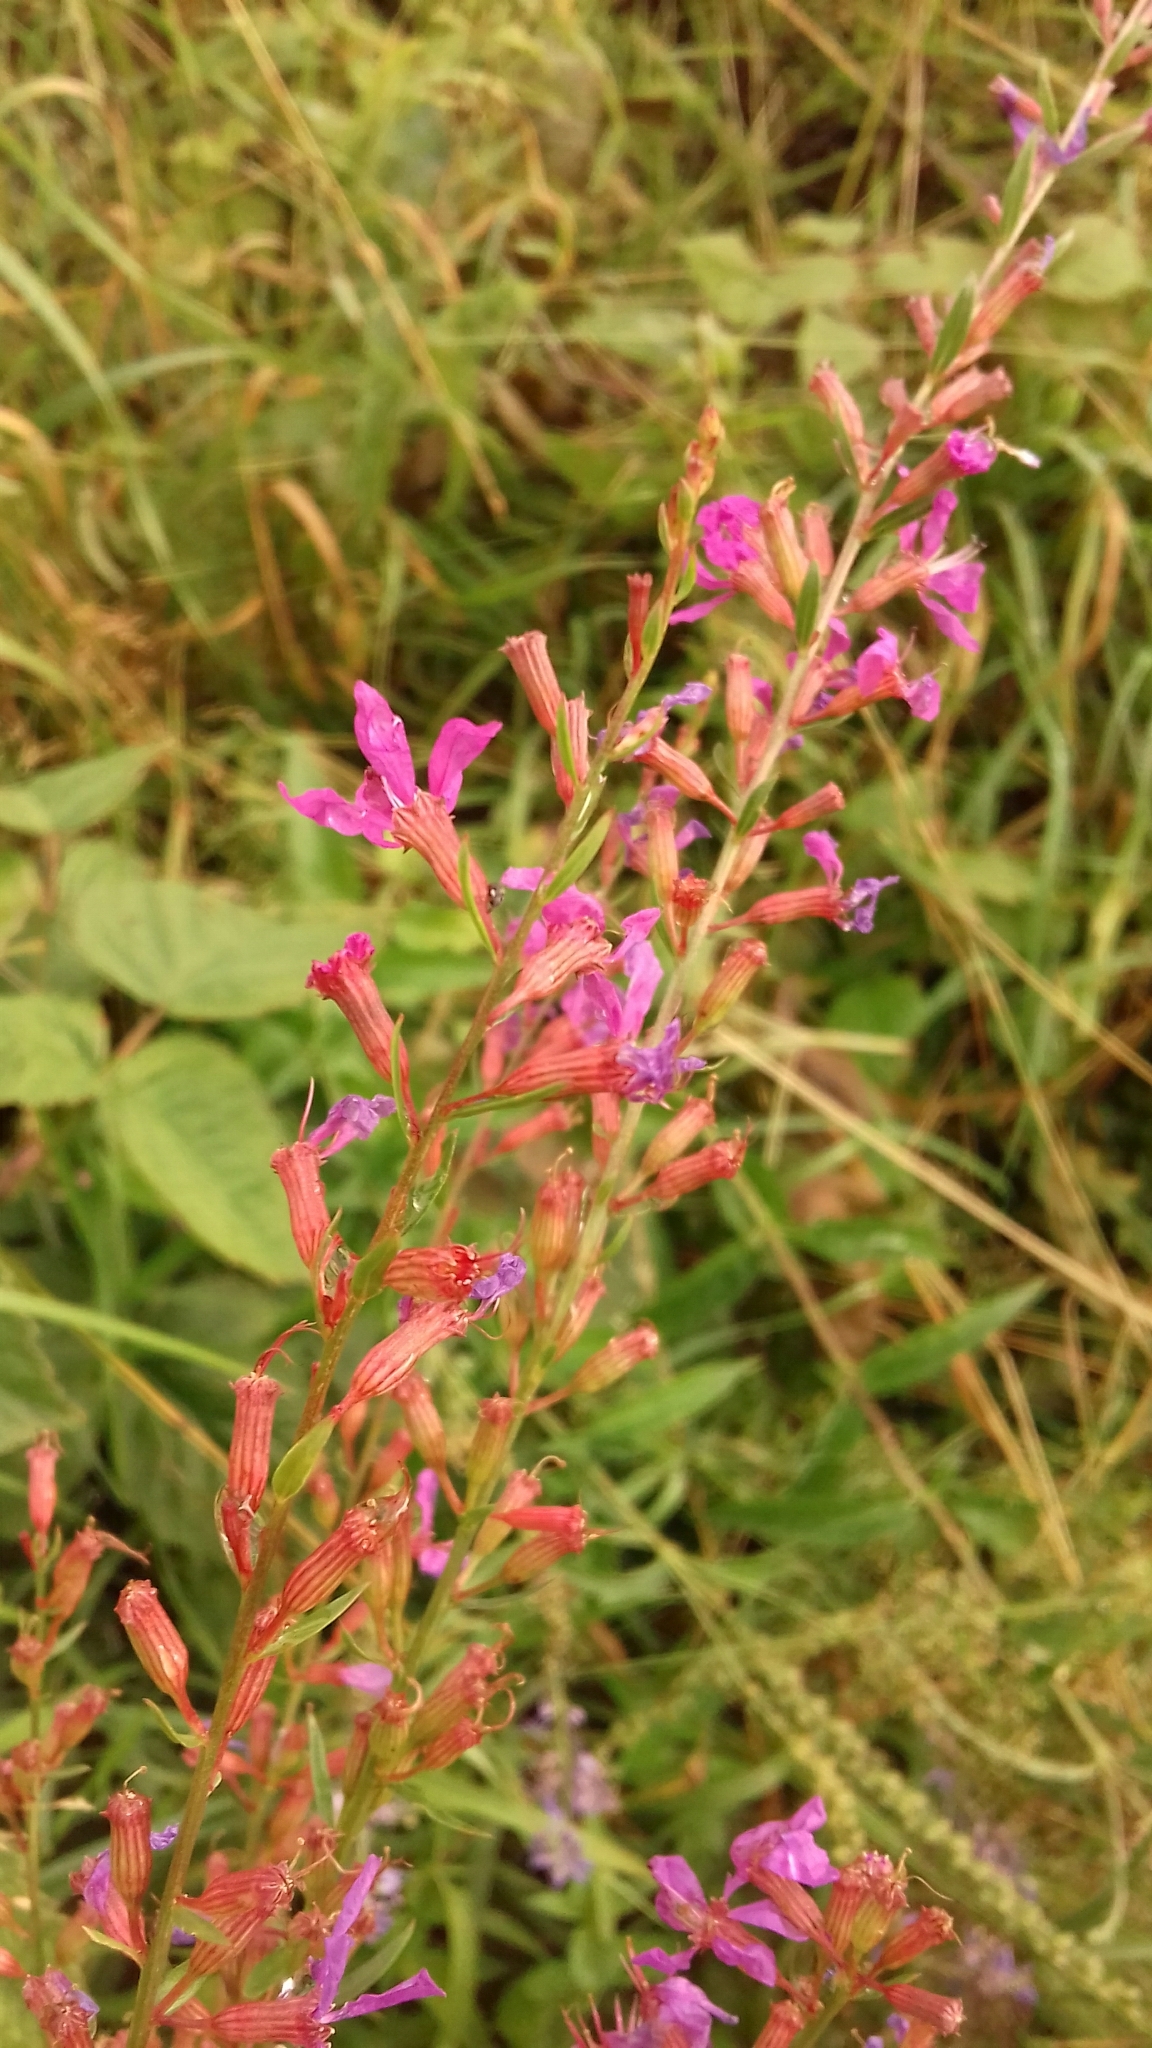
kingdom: Plantae
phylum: Tracheophyta
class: Magnoliopsida
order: Myrtales
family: Lythraceae
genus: Lythrum
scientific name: Lythrum virgatum
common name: European wand loosestrife
